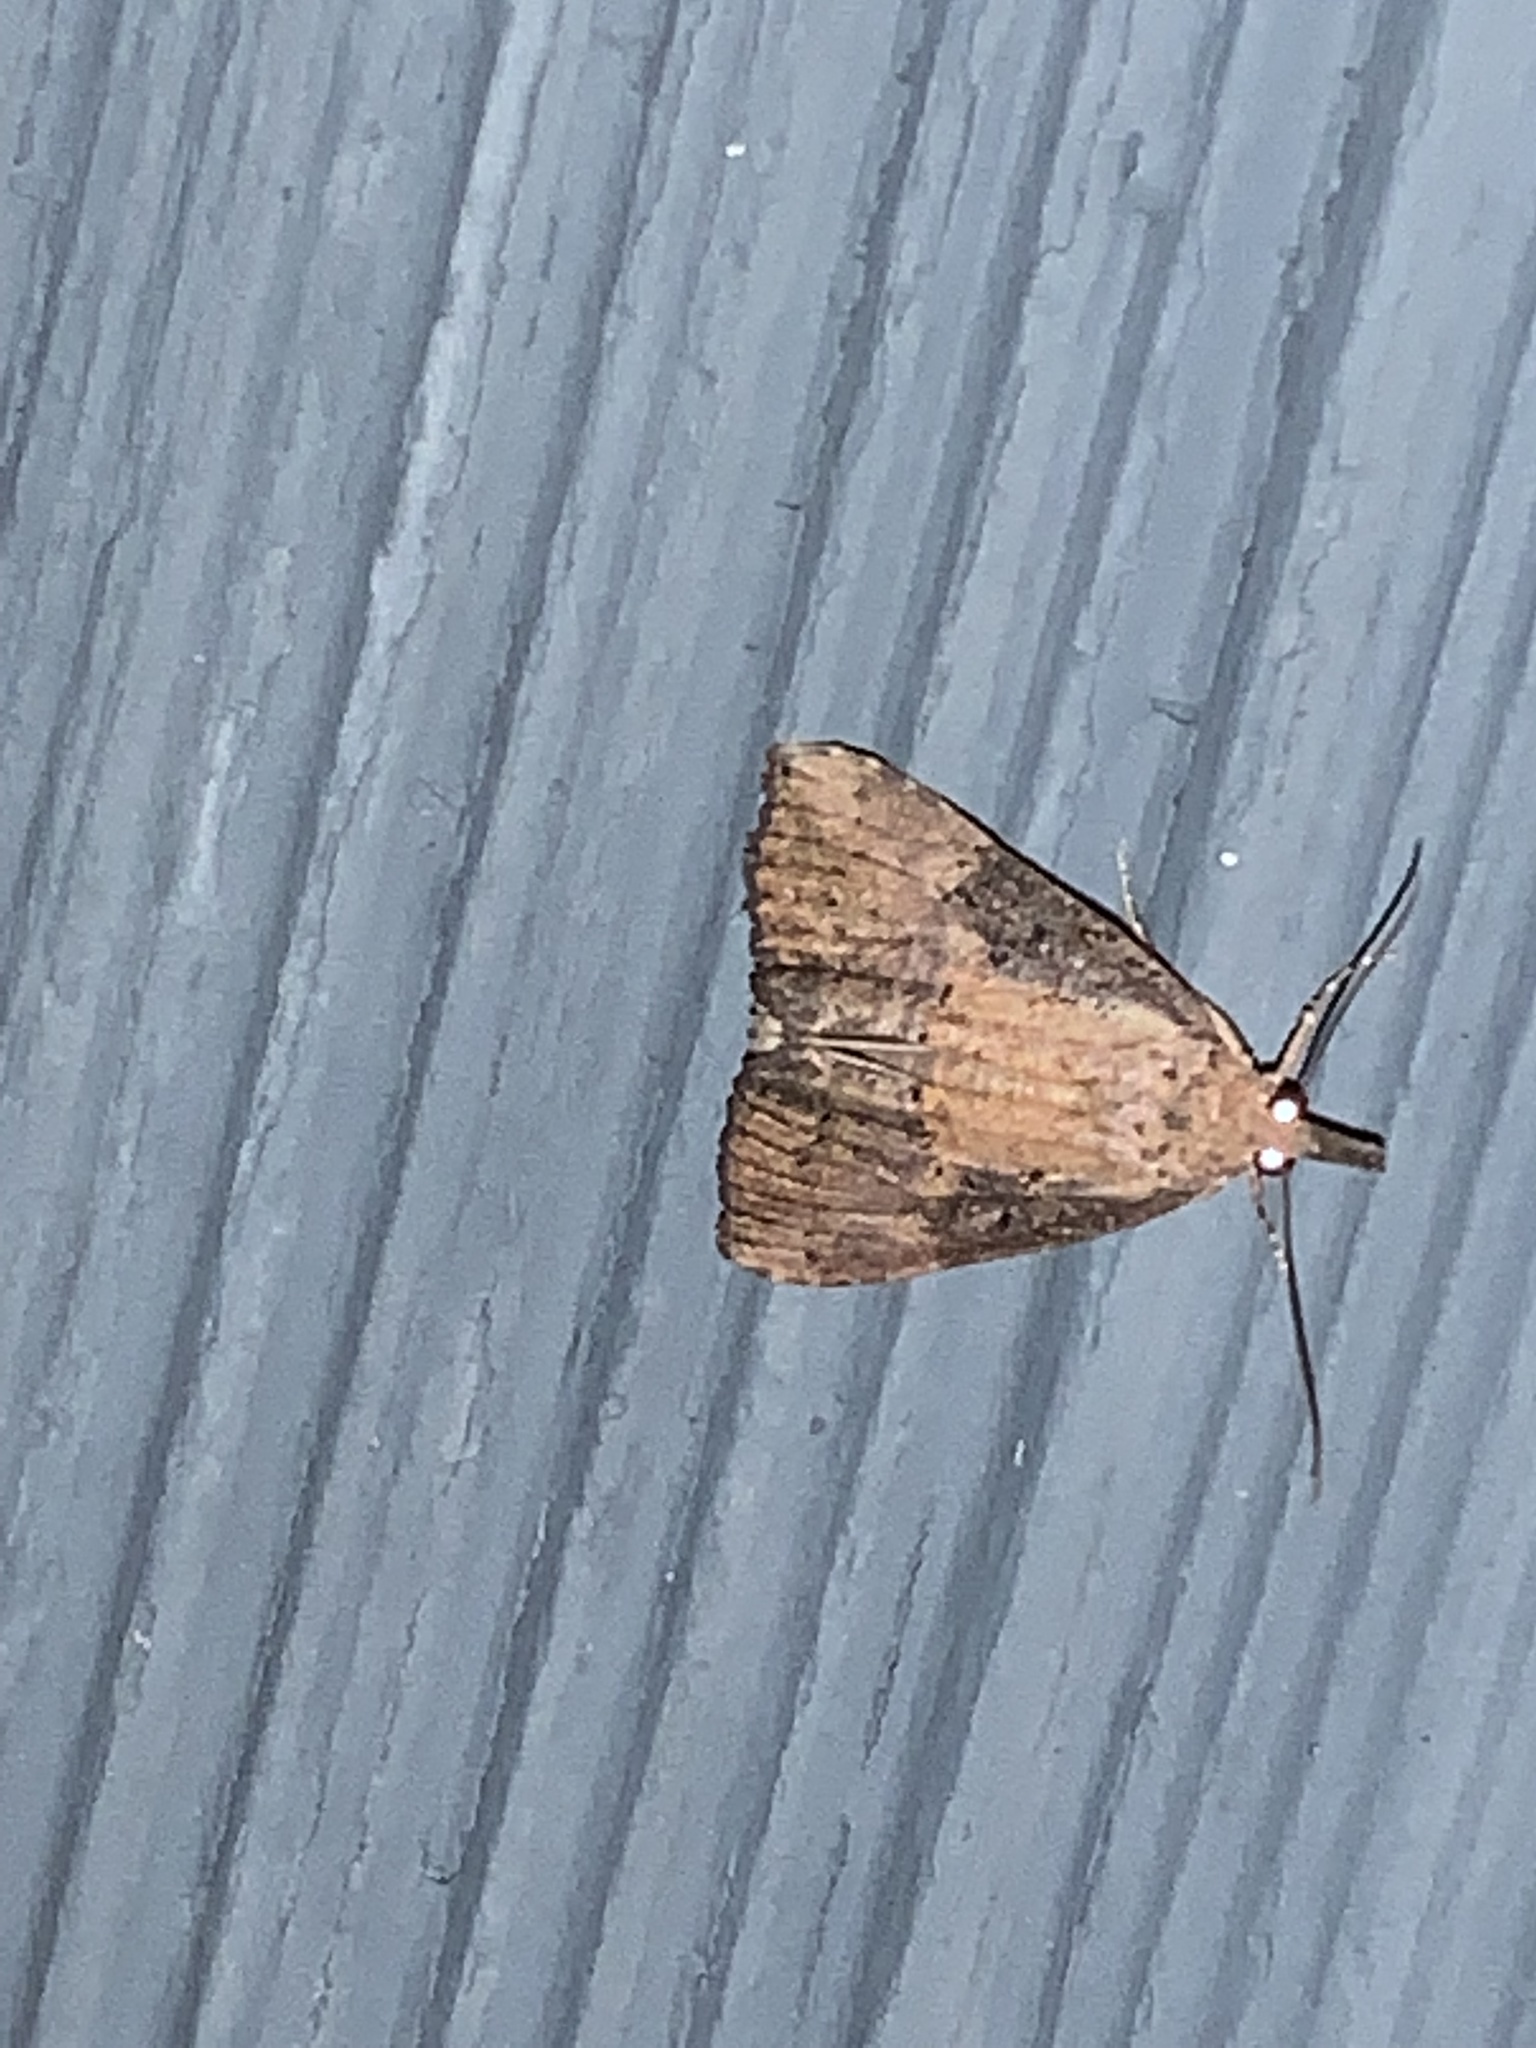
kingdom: Animalia
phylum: Arthropoda
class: Insecta
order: Lepidoptera
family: Erebidae
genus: Hypena
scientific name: Hypena scabra
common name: Green cloverworm
